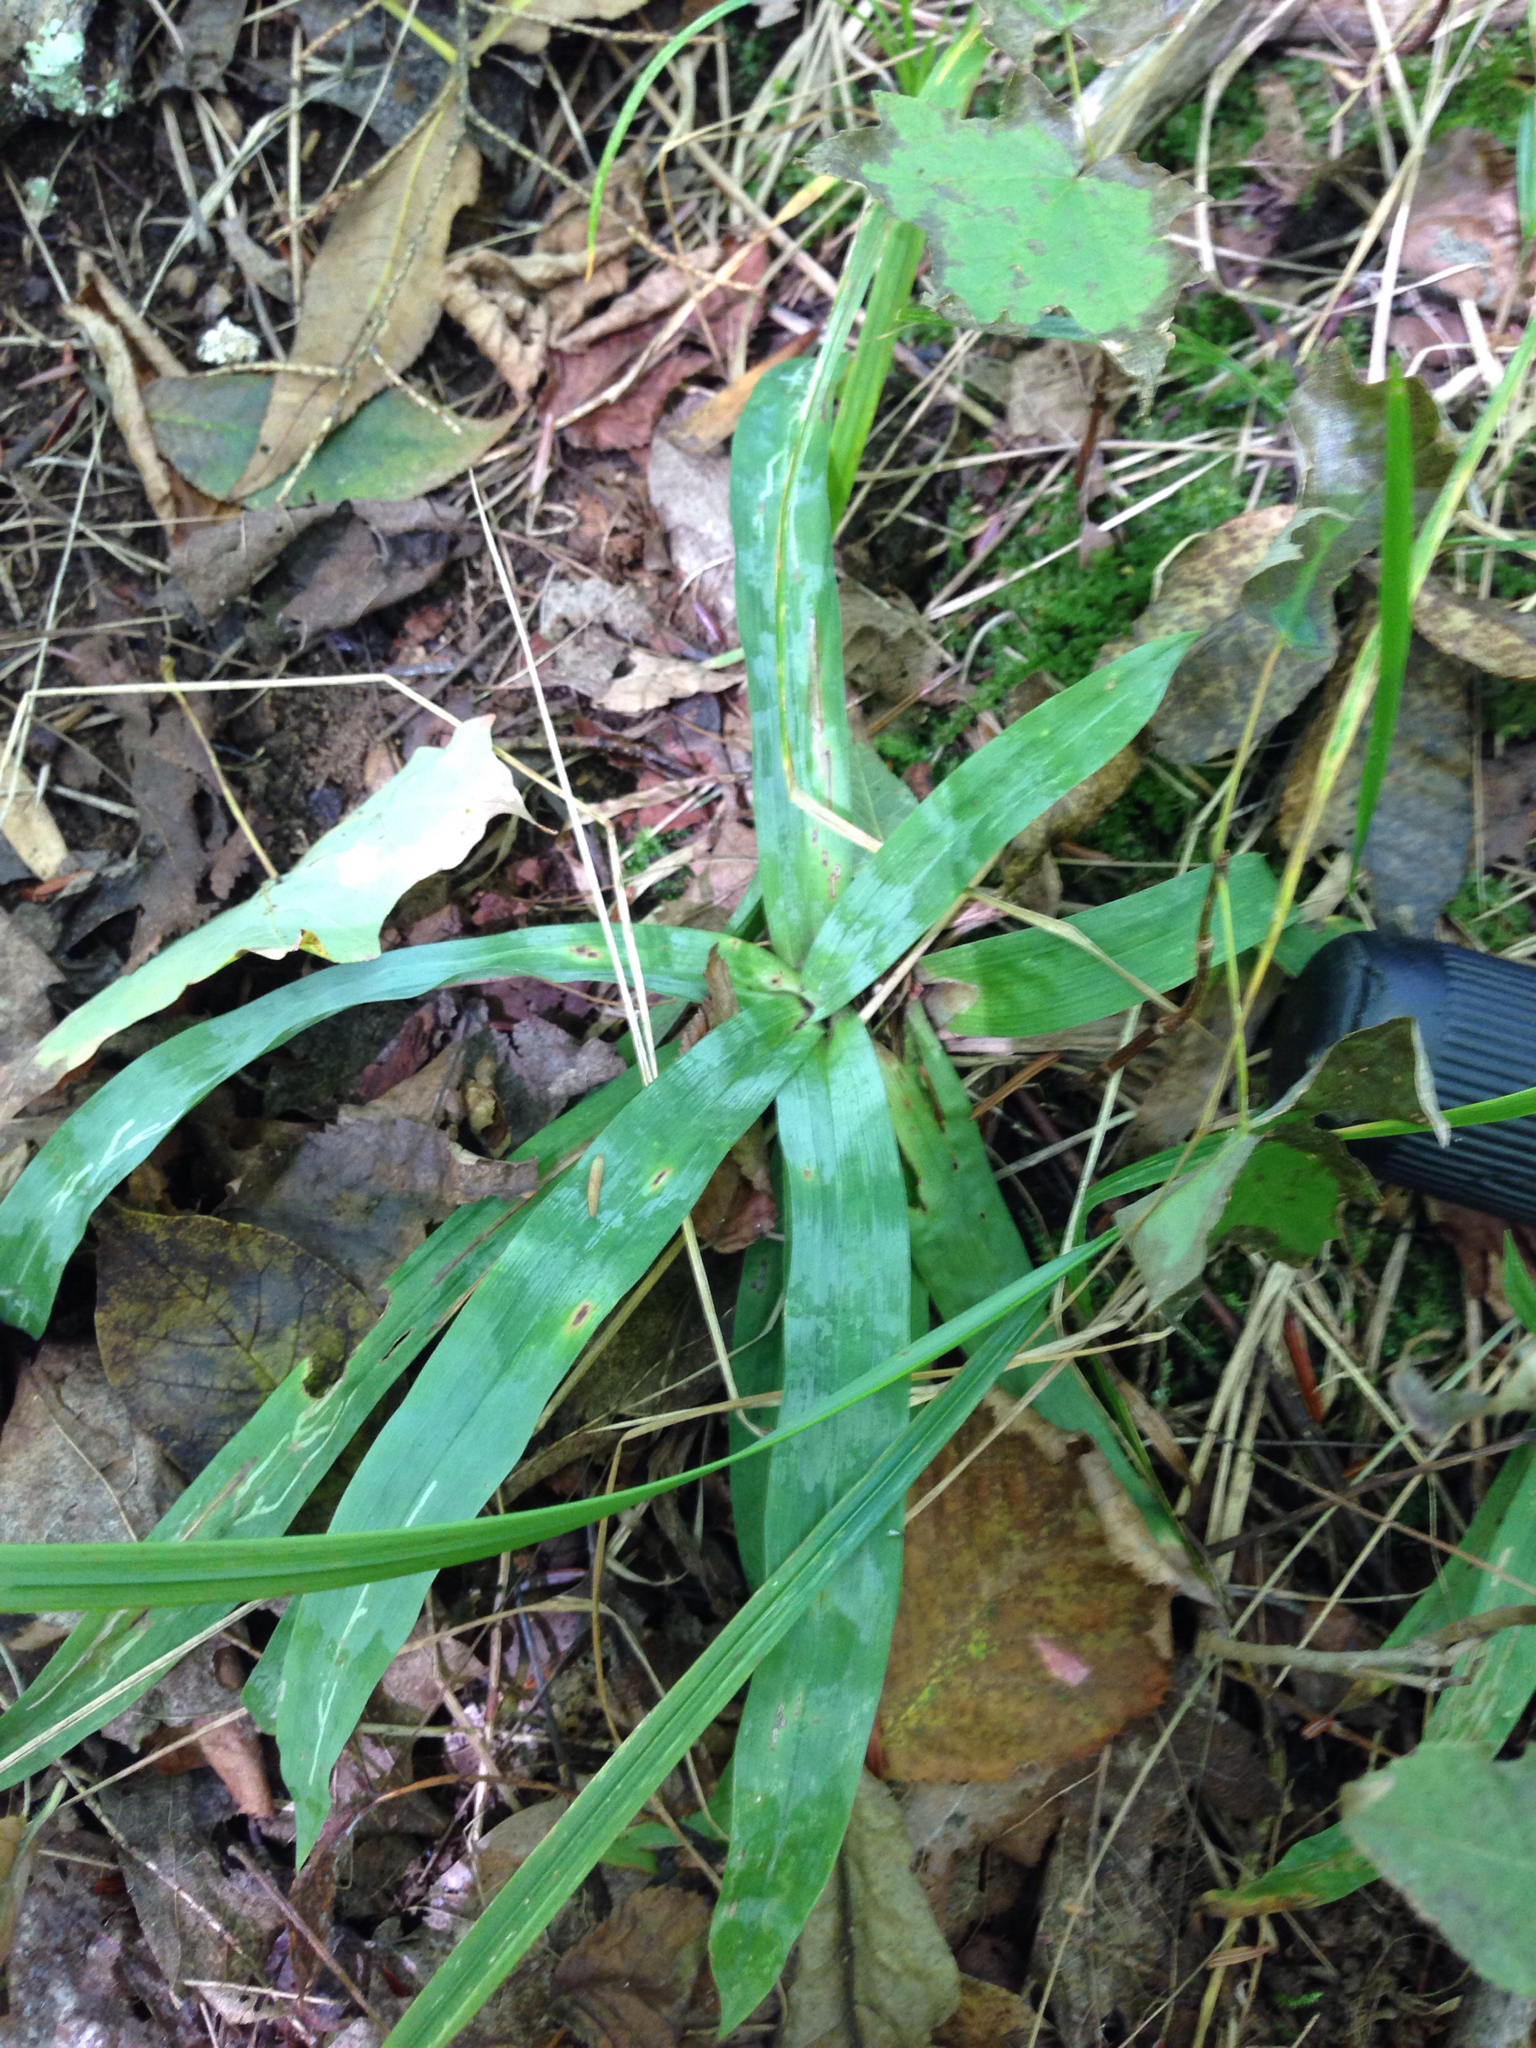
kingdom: Plantae
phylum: Tracheophyta
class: Liliopsida
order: Poales
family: Cyperaceae
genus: Carex
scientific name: Carex platyphylla
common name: Broad-leaved sedge
